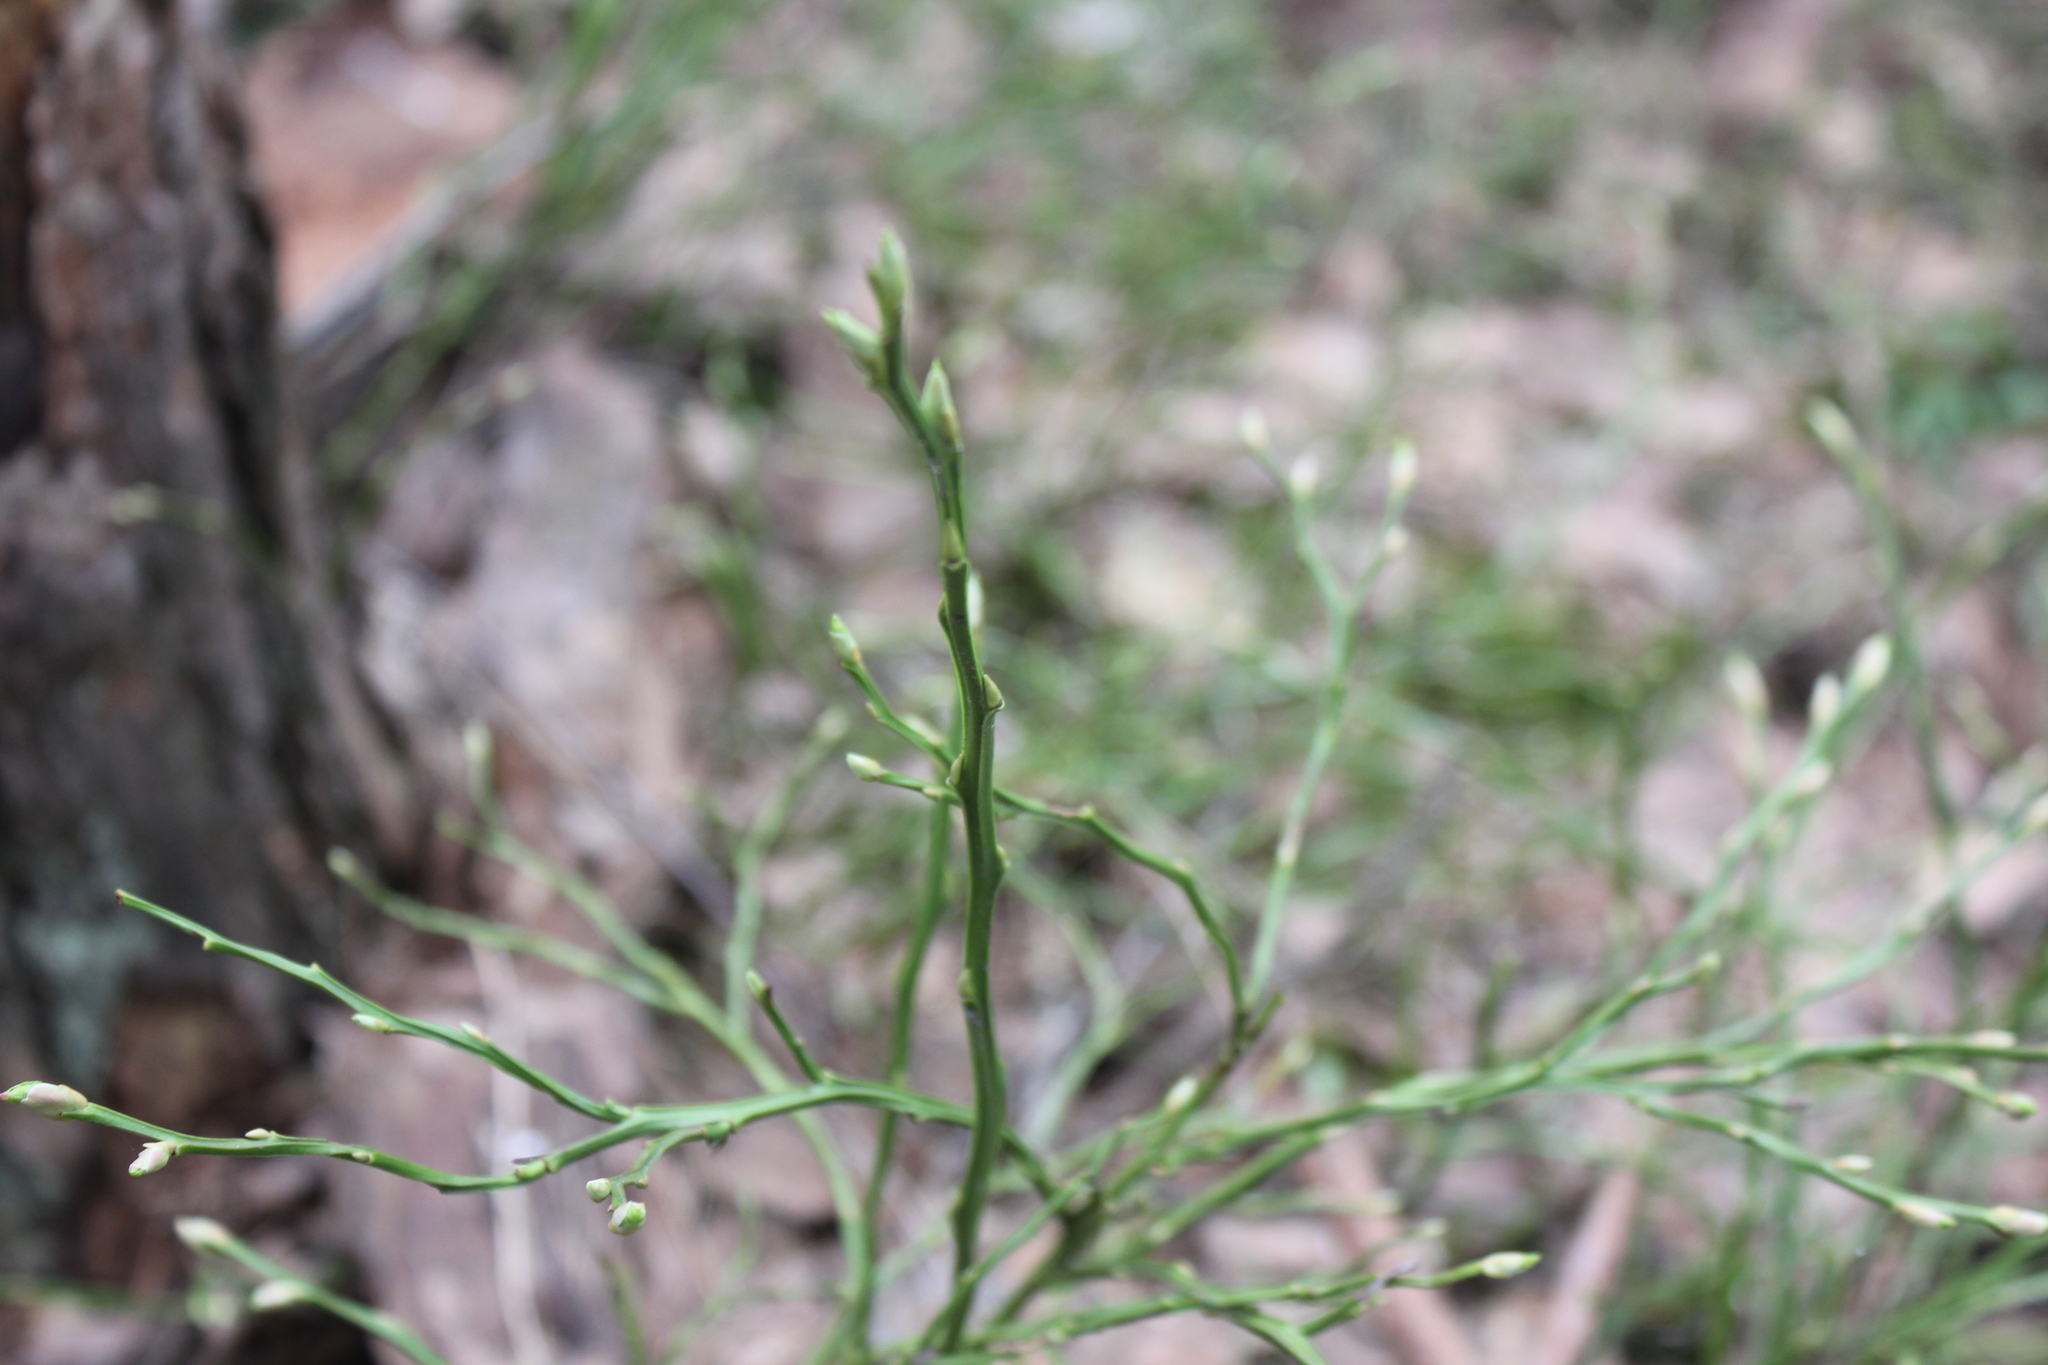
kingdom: Plantae
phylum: Tracheophyta
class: Magnoliopsida
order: Ericales
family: Ericaceae
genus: Vaccinium
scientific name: Vaccinium myrtillus
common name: Bilberry
